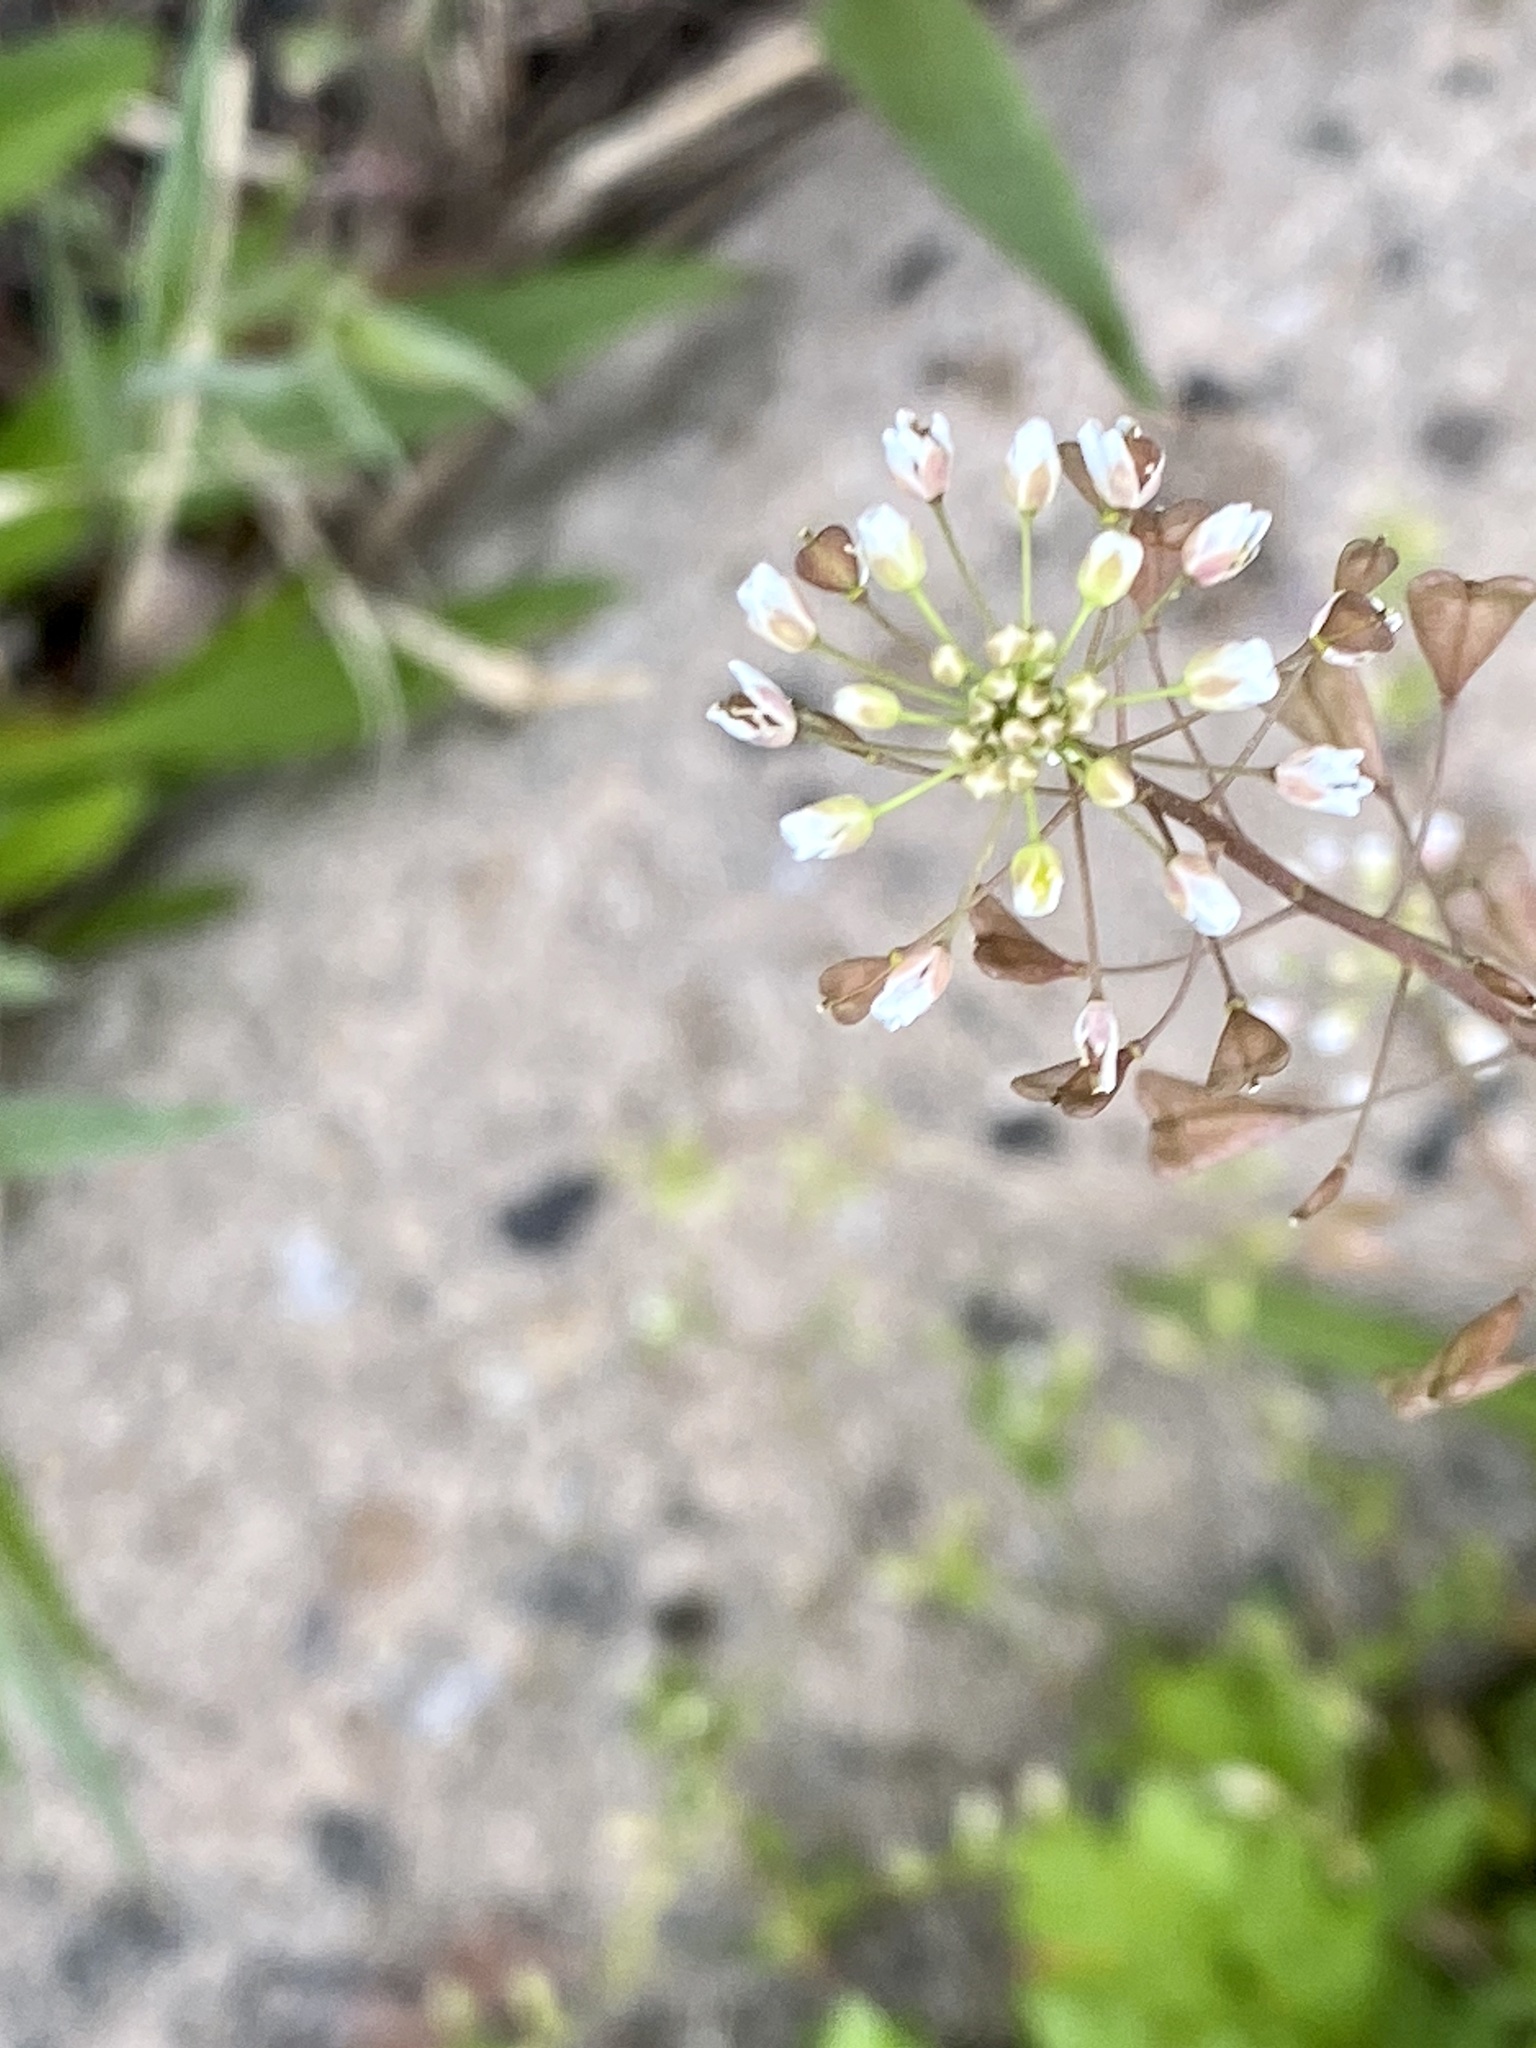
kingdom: Plantae
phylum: Tracheophyta
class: Magnoliopsida
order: Brassicales
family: Brassicaceae
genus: Capsella
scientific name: Capsella bursa-pastoris
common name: Shepherd's purse
